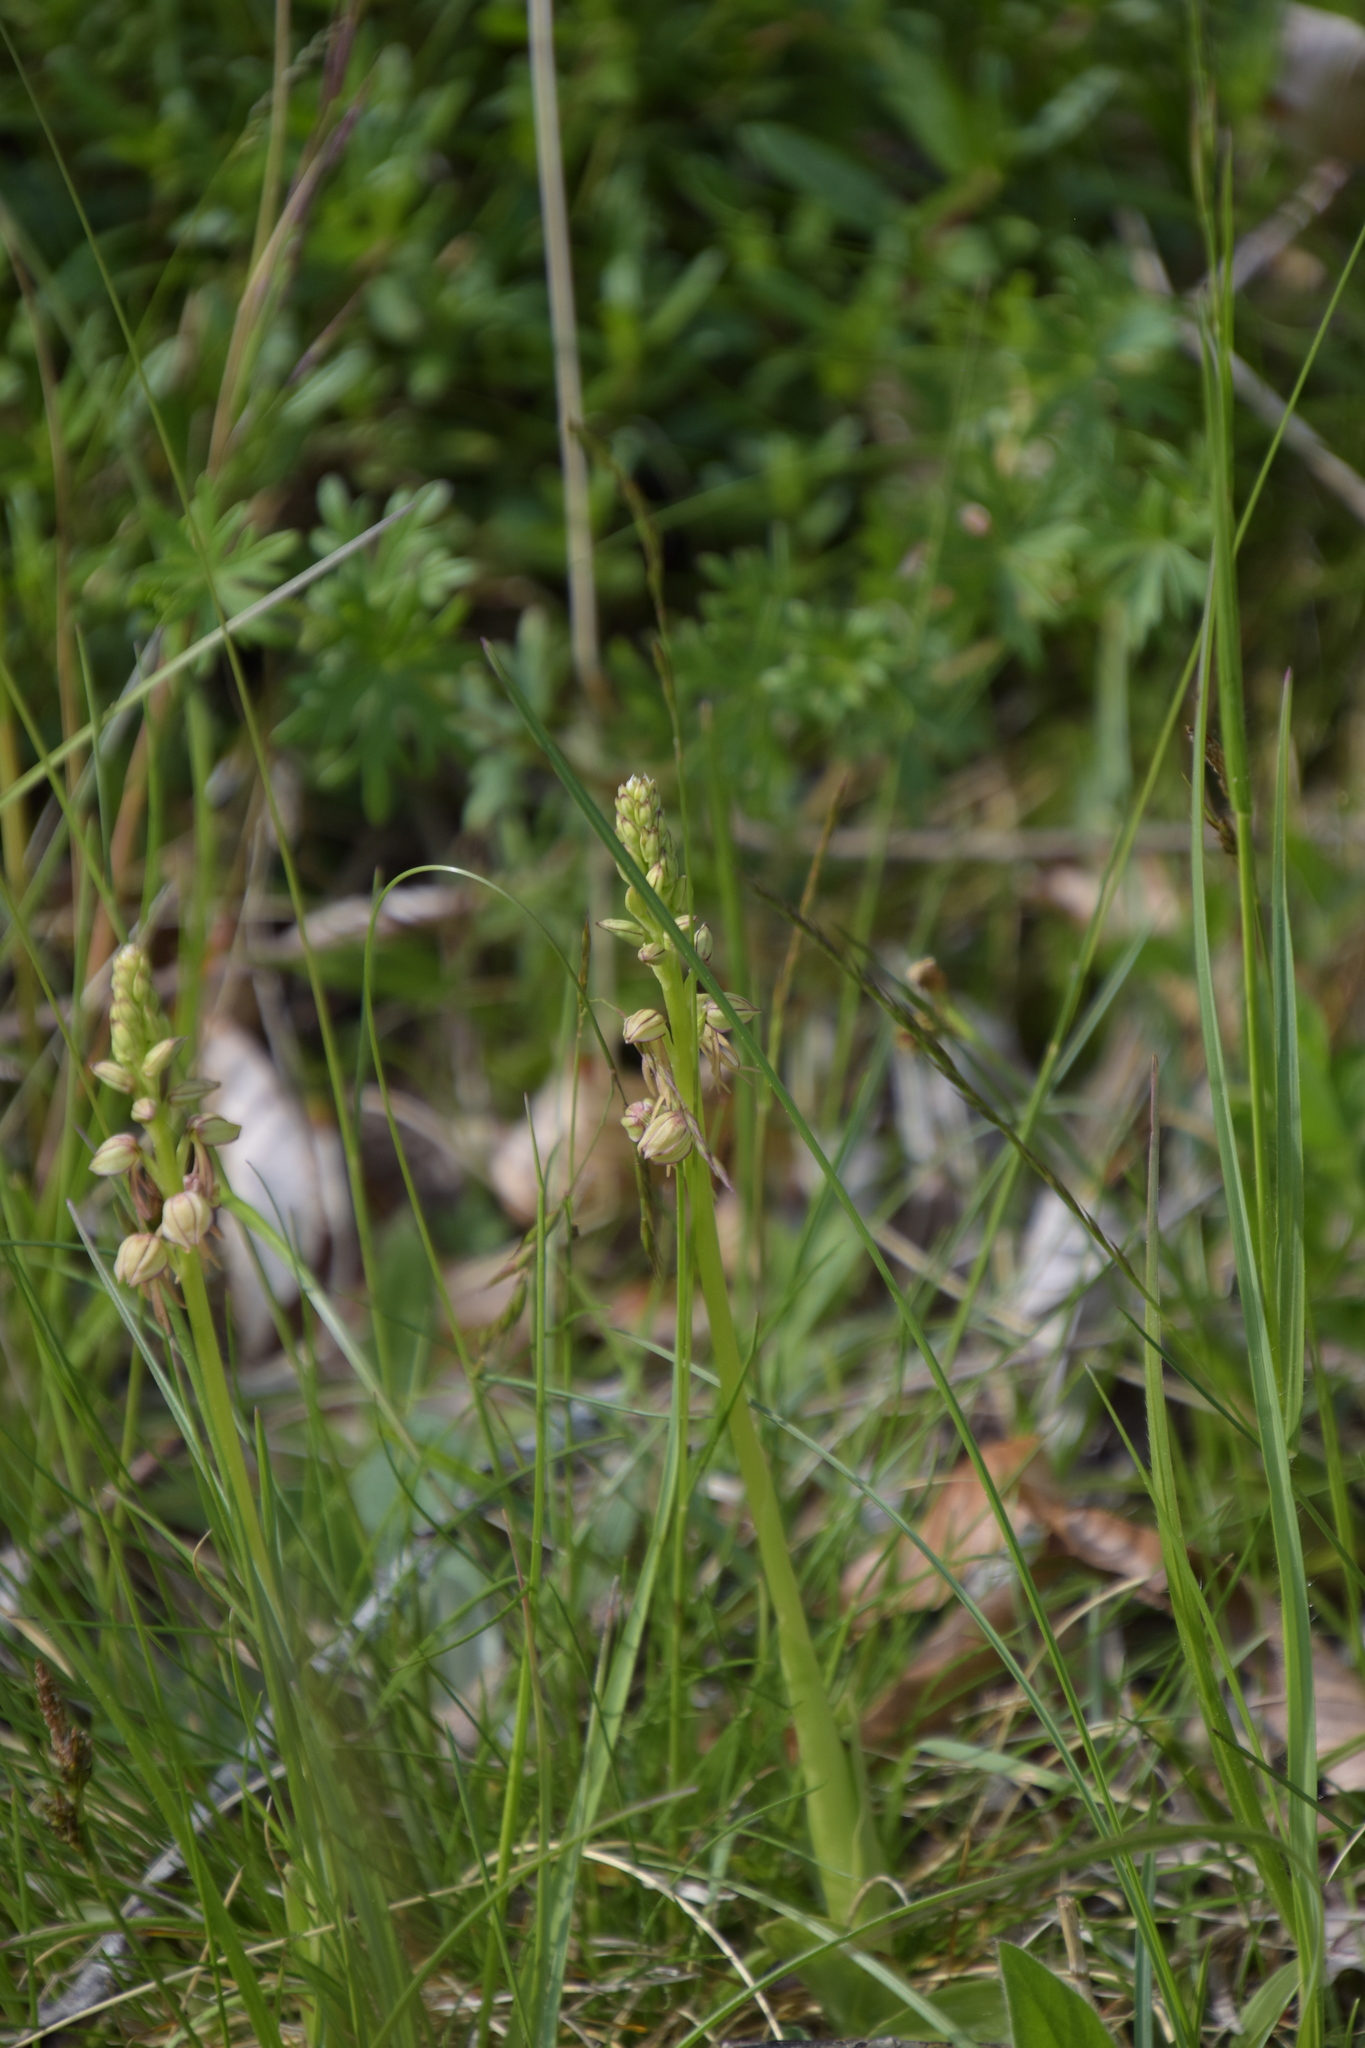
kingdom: Plantae
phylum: Tracheophyta
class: Liliopsida
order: Asparagales
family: Orchidaceae
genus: Orchis
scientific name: Orchis anthropophora
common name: Man orchid
